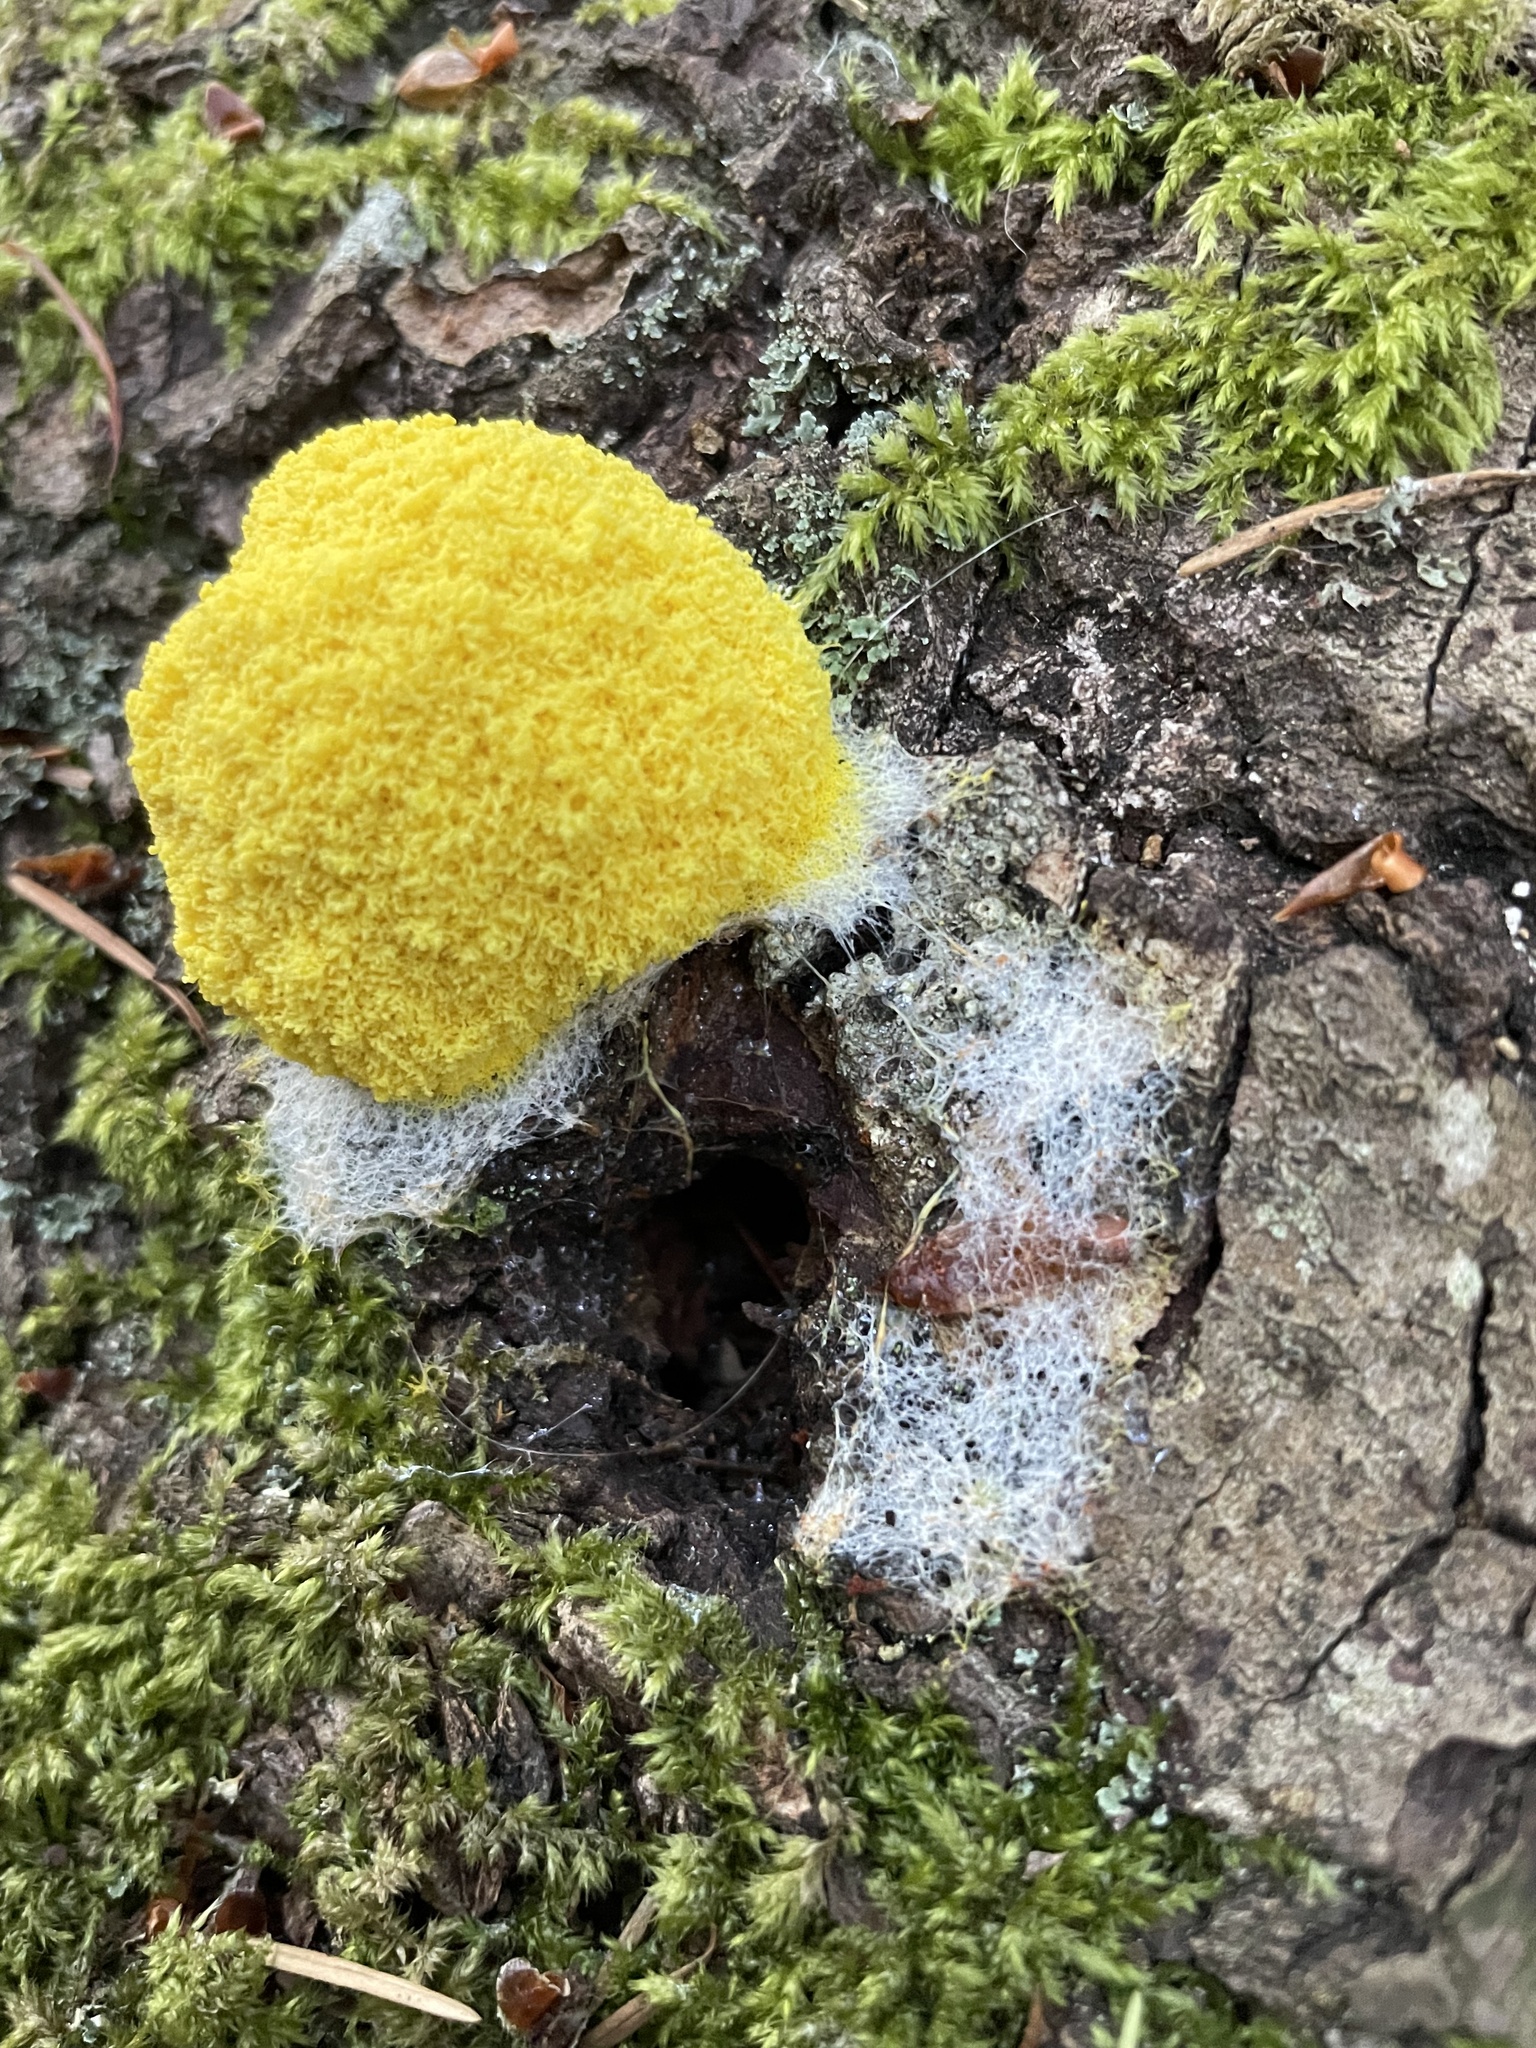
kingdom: Protozoa
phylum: Mycetozoa
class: Myxomycetes
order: Physarales
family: Physaraceae
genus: Fuligo
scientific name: Fuligo septica
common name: Dog vomit slime mold
